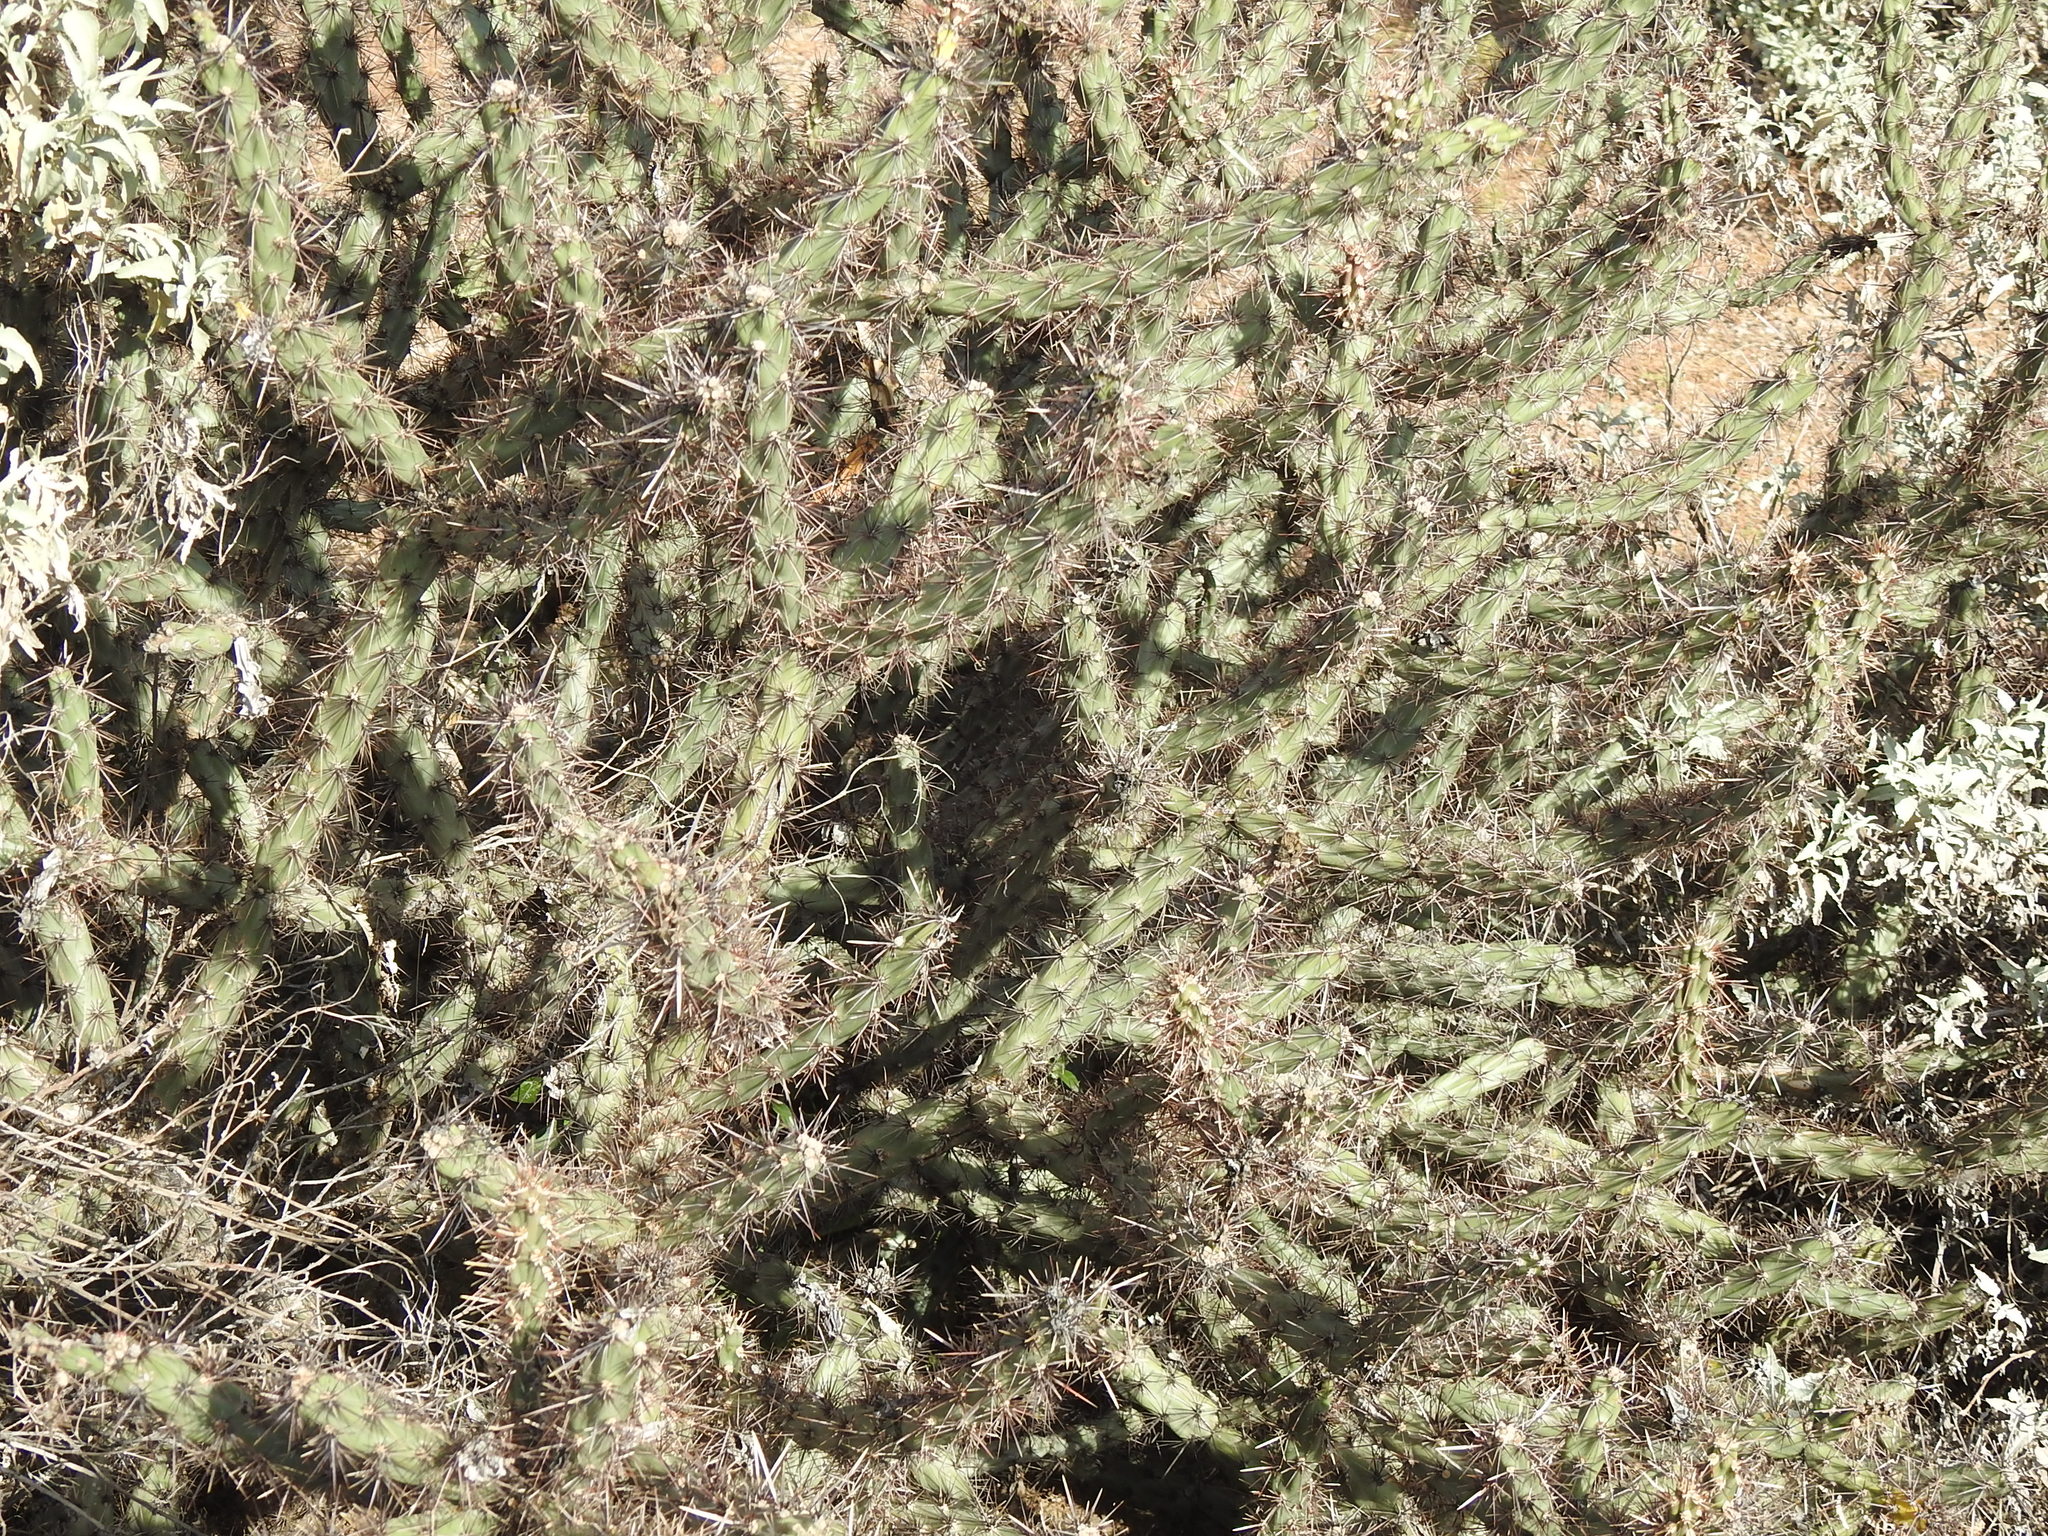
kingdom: Plantae
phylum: Tracheophyta
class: Magnoliopsida
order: Caryophyllales
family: Cactaceae
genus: Cylindropuntia
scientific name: Cylindropuntia acanthocarpa
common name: Buckhorn cholla
